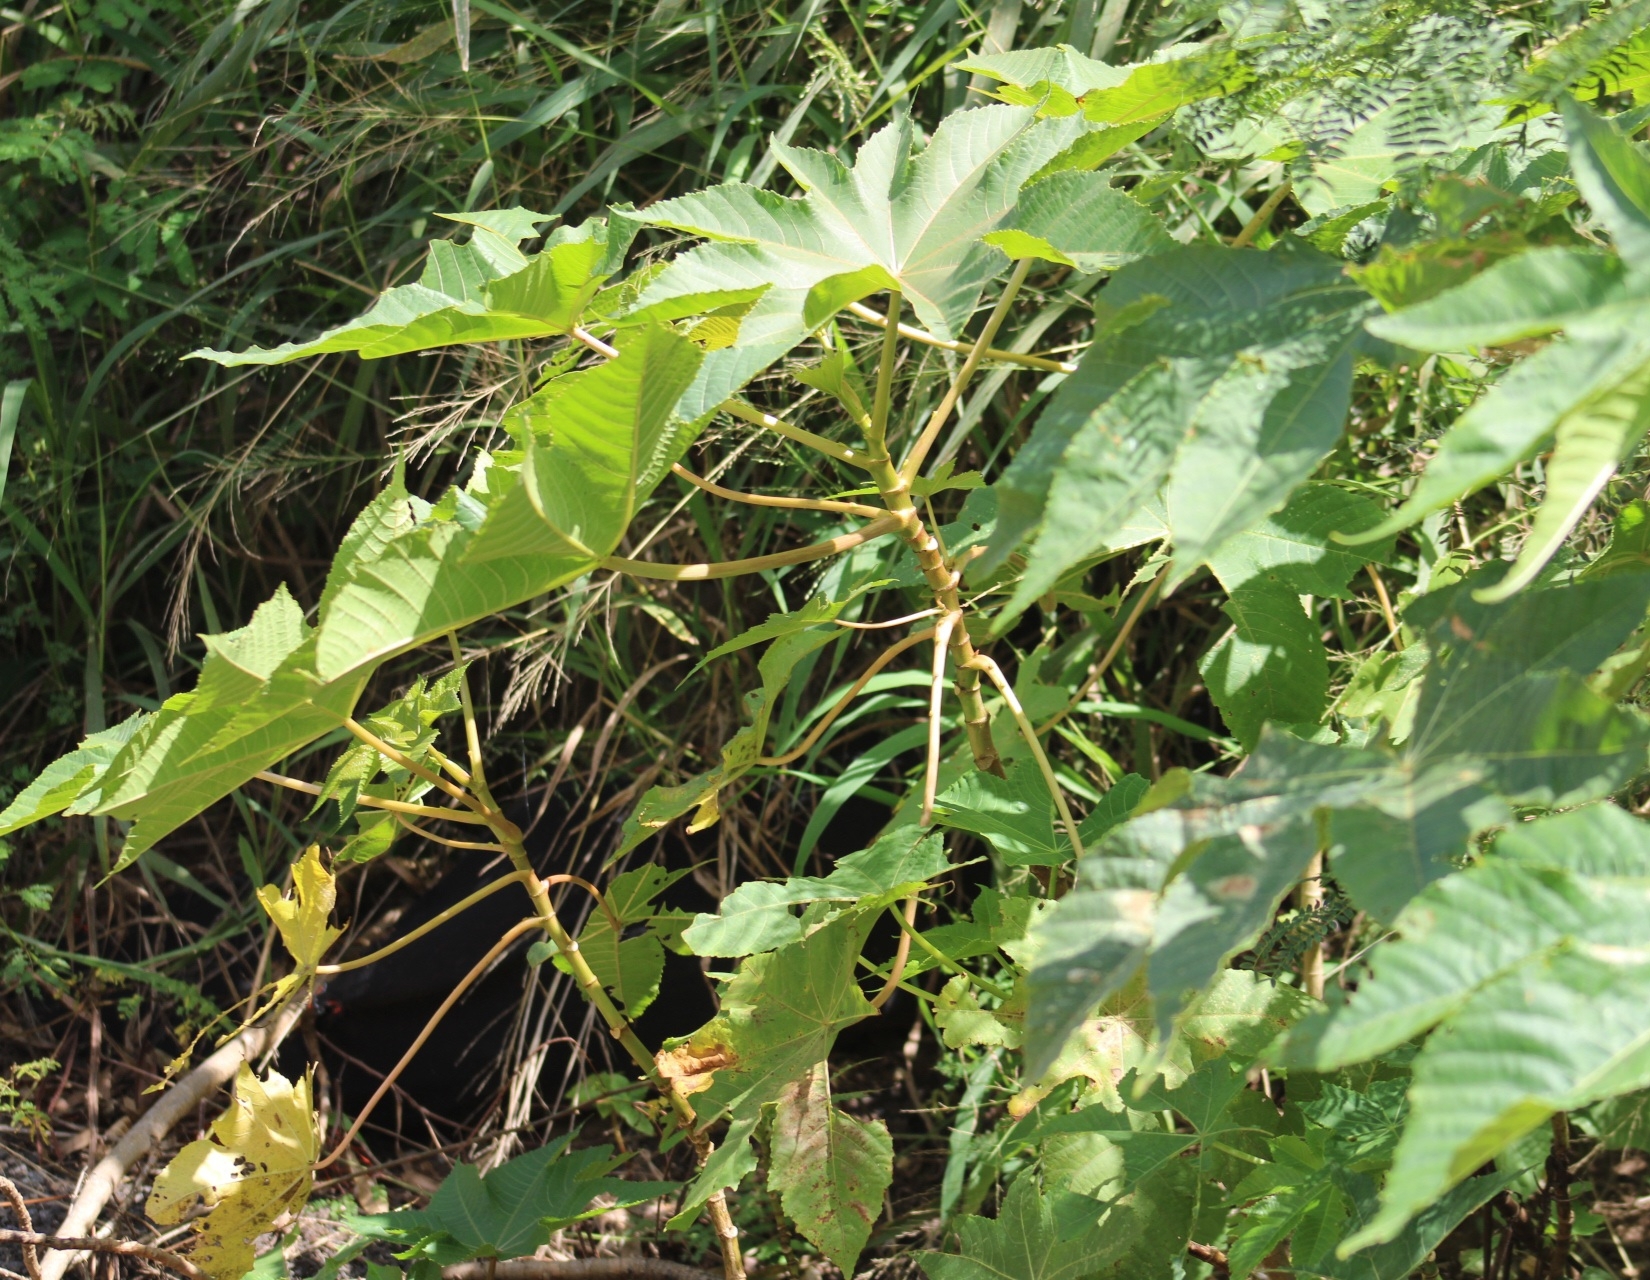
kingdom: Plantae
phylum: Tracheophyta
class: Magnoliopsida
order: Malpighiales
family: Euphorbiaceae
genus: Ricinus
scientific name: Ricinus communis
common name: Castor-oil-plant
